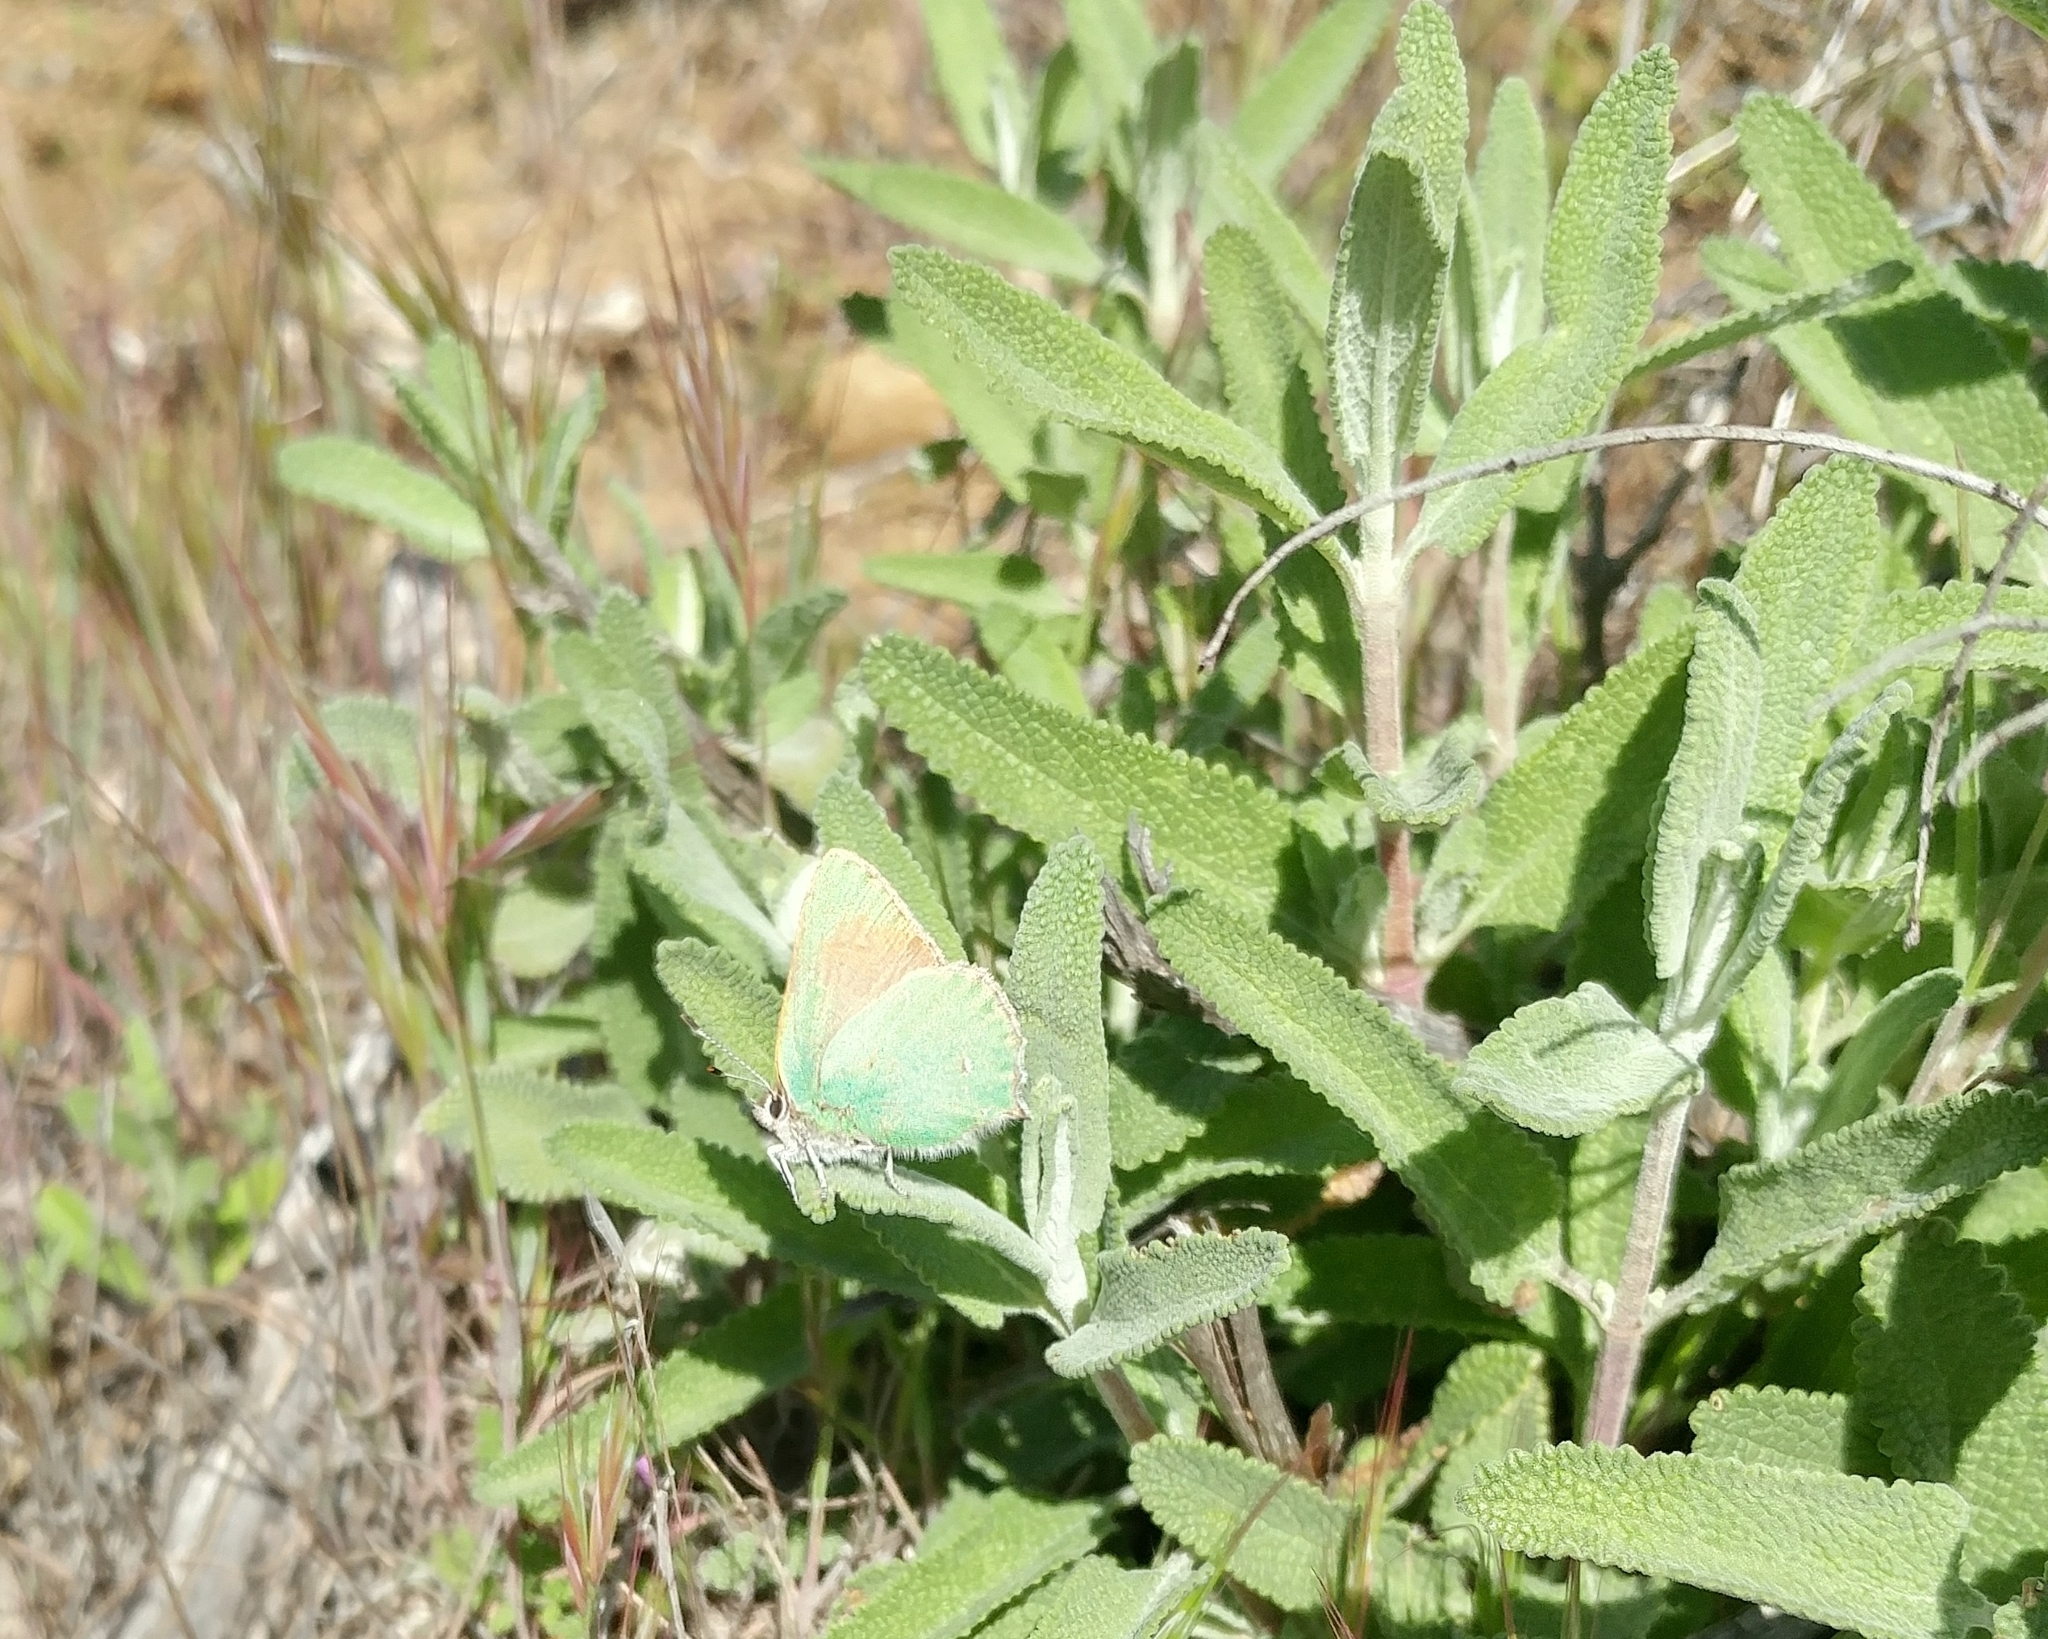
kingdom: Animalia
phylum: Arthropoda
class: Insecta
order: Lepidoptera
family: Lycaenidae
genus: Callophrys
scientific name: Callophrys dumetorum
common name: Bramble hairstreak
